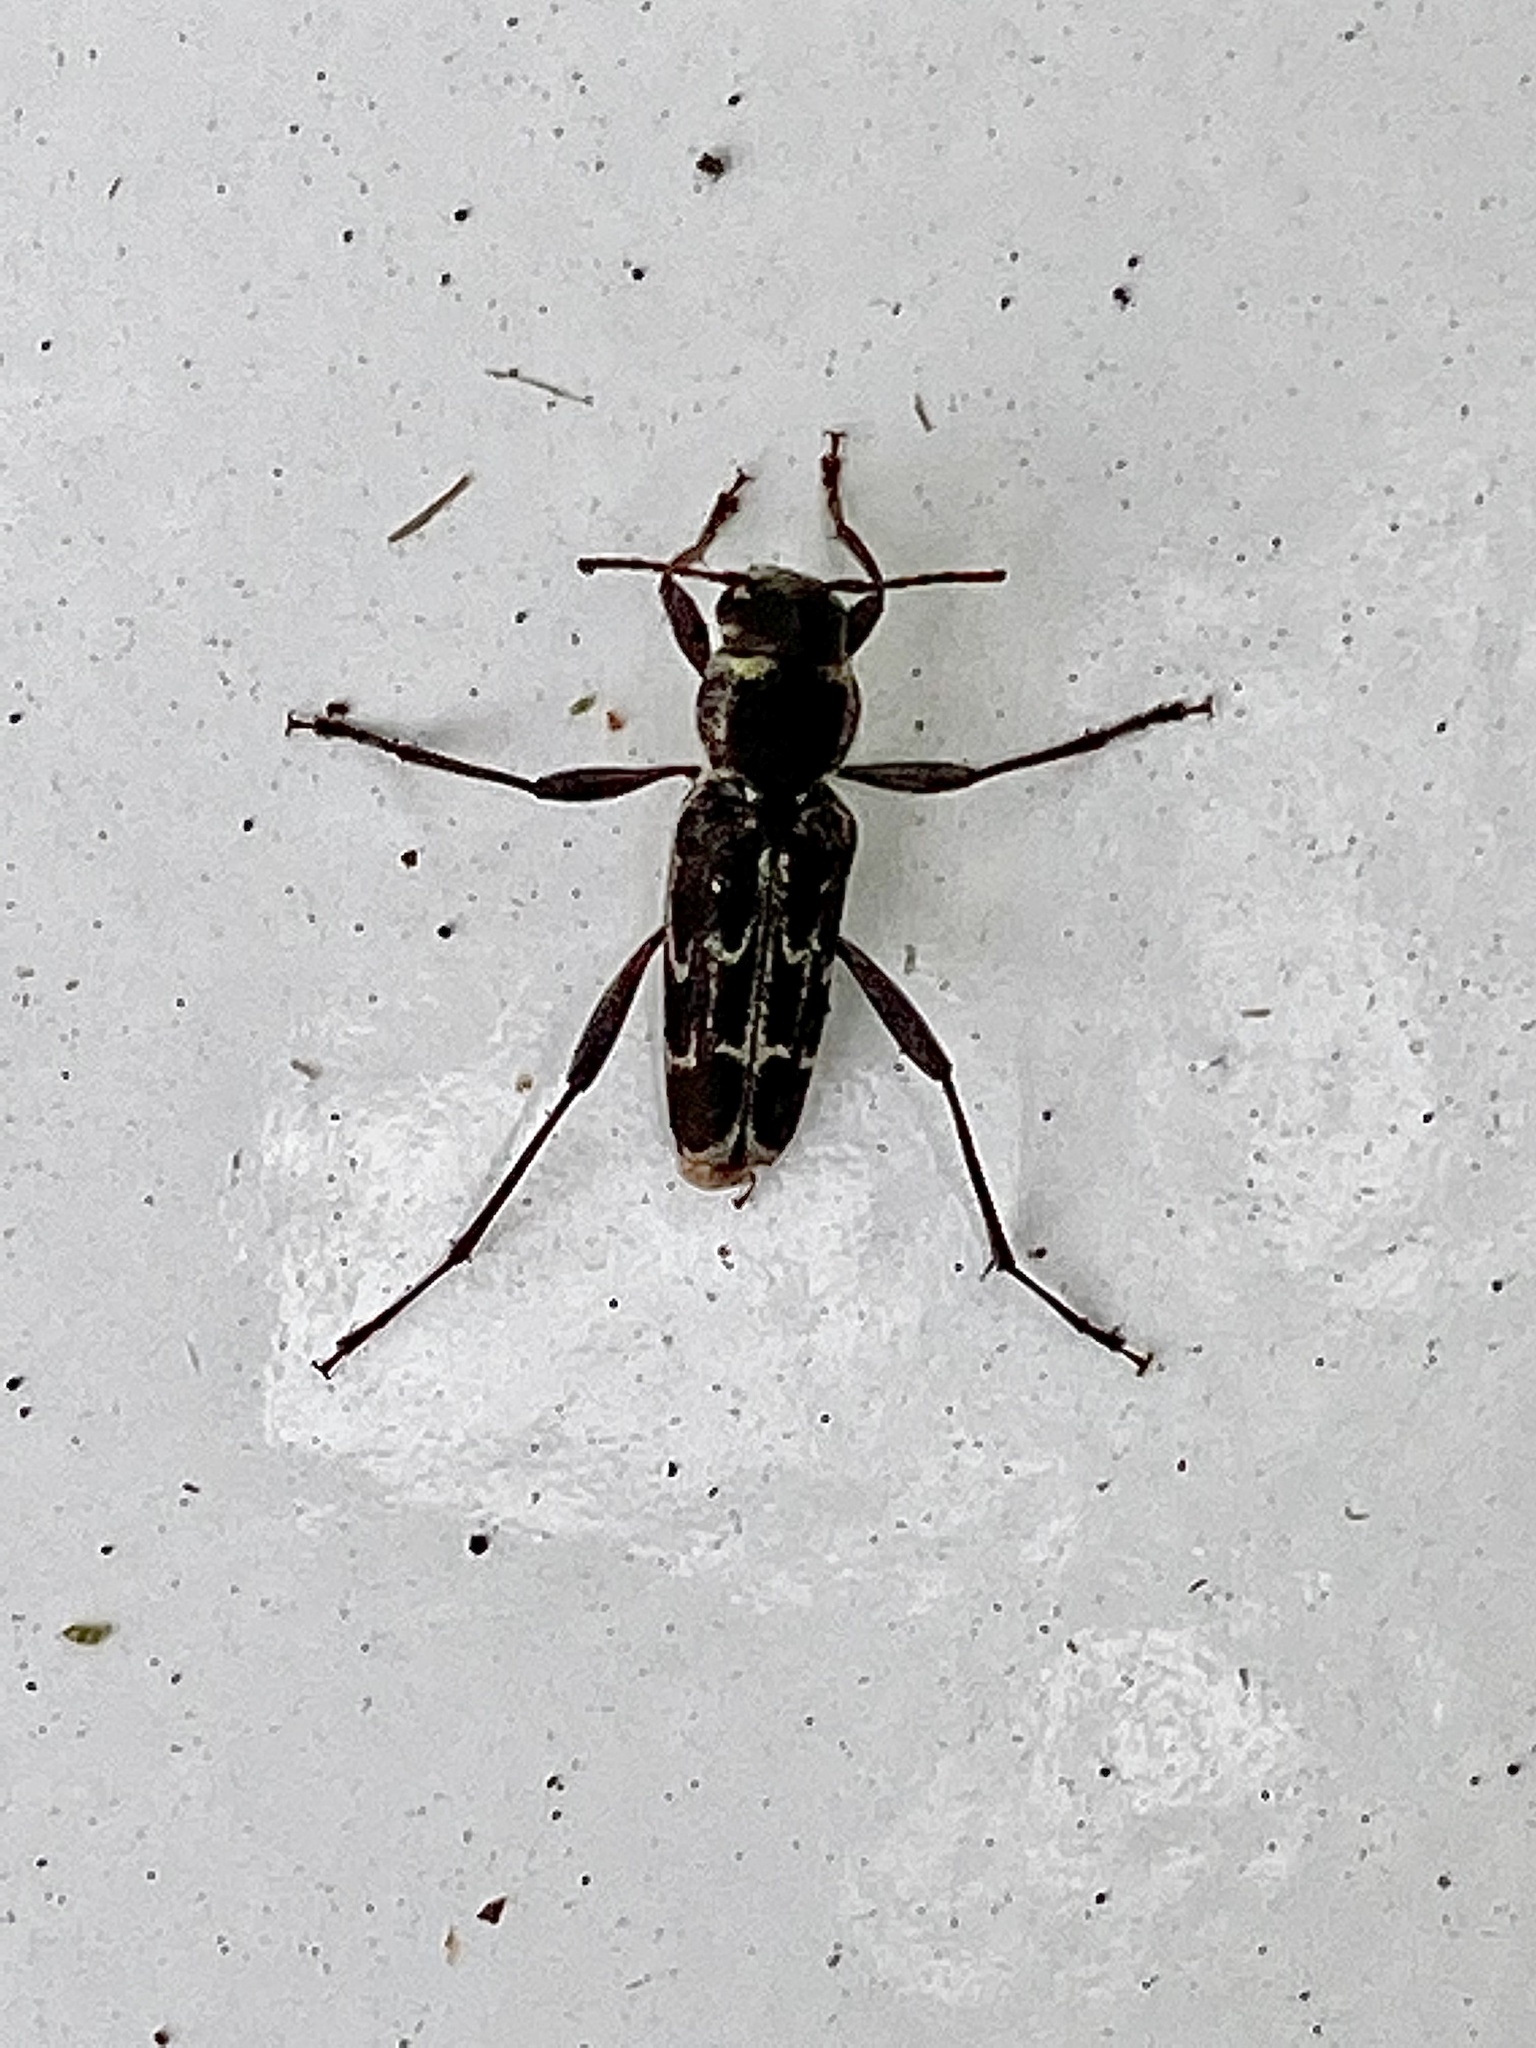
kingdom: Animalia
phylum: Arthropoda
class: Insecta
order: Coleoptera
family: Cerambycidae
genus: Sarosesthes
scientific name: Sarosesthes fulminans
